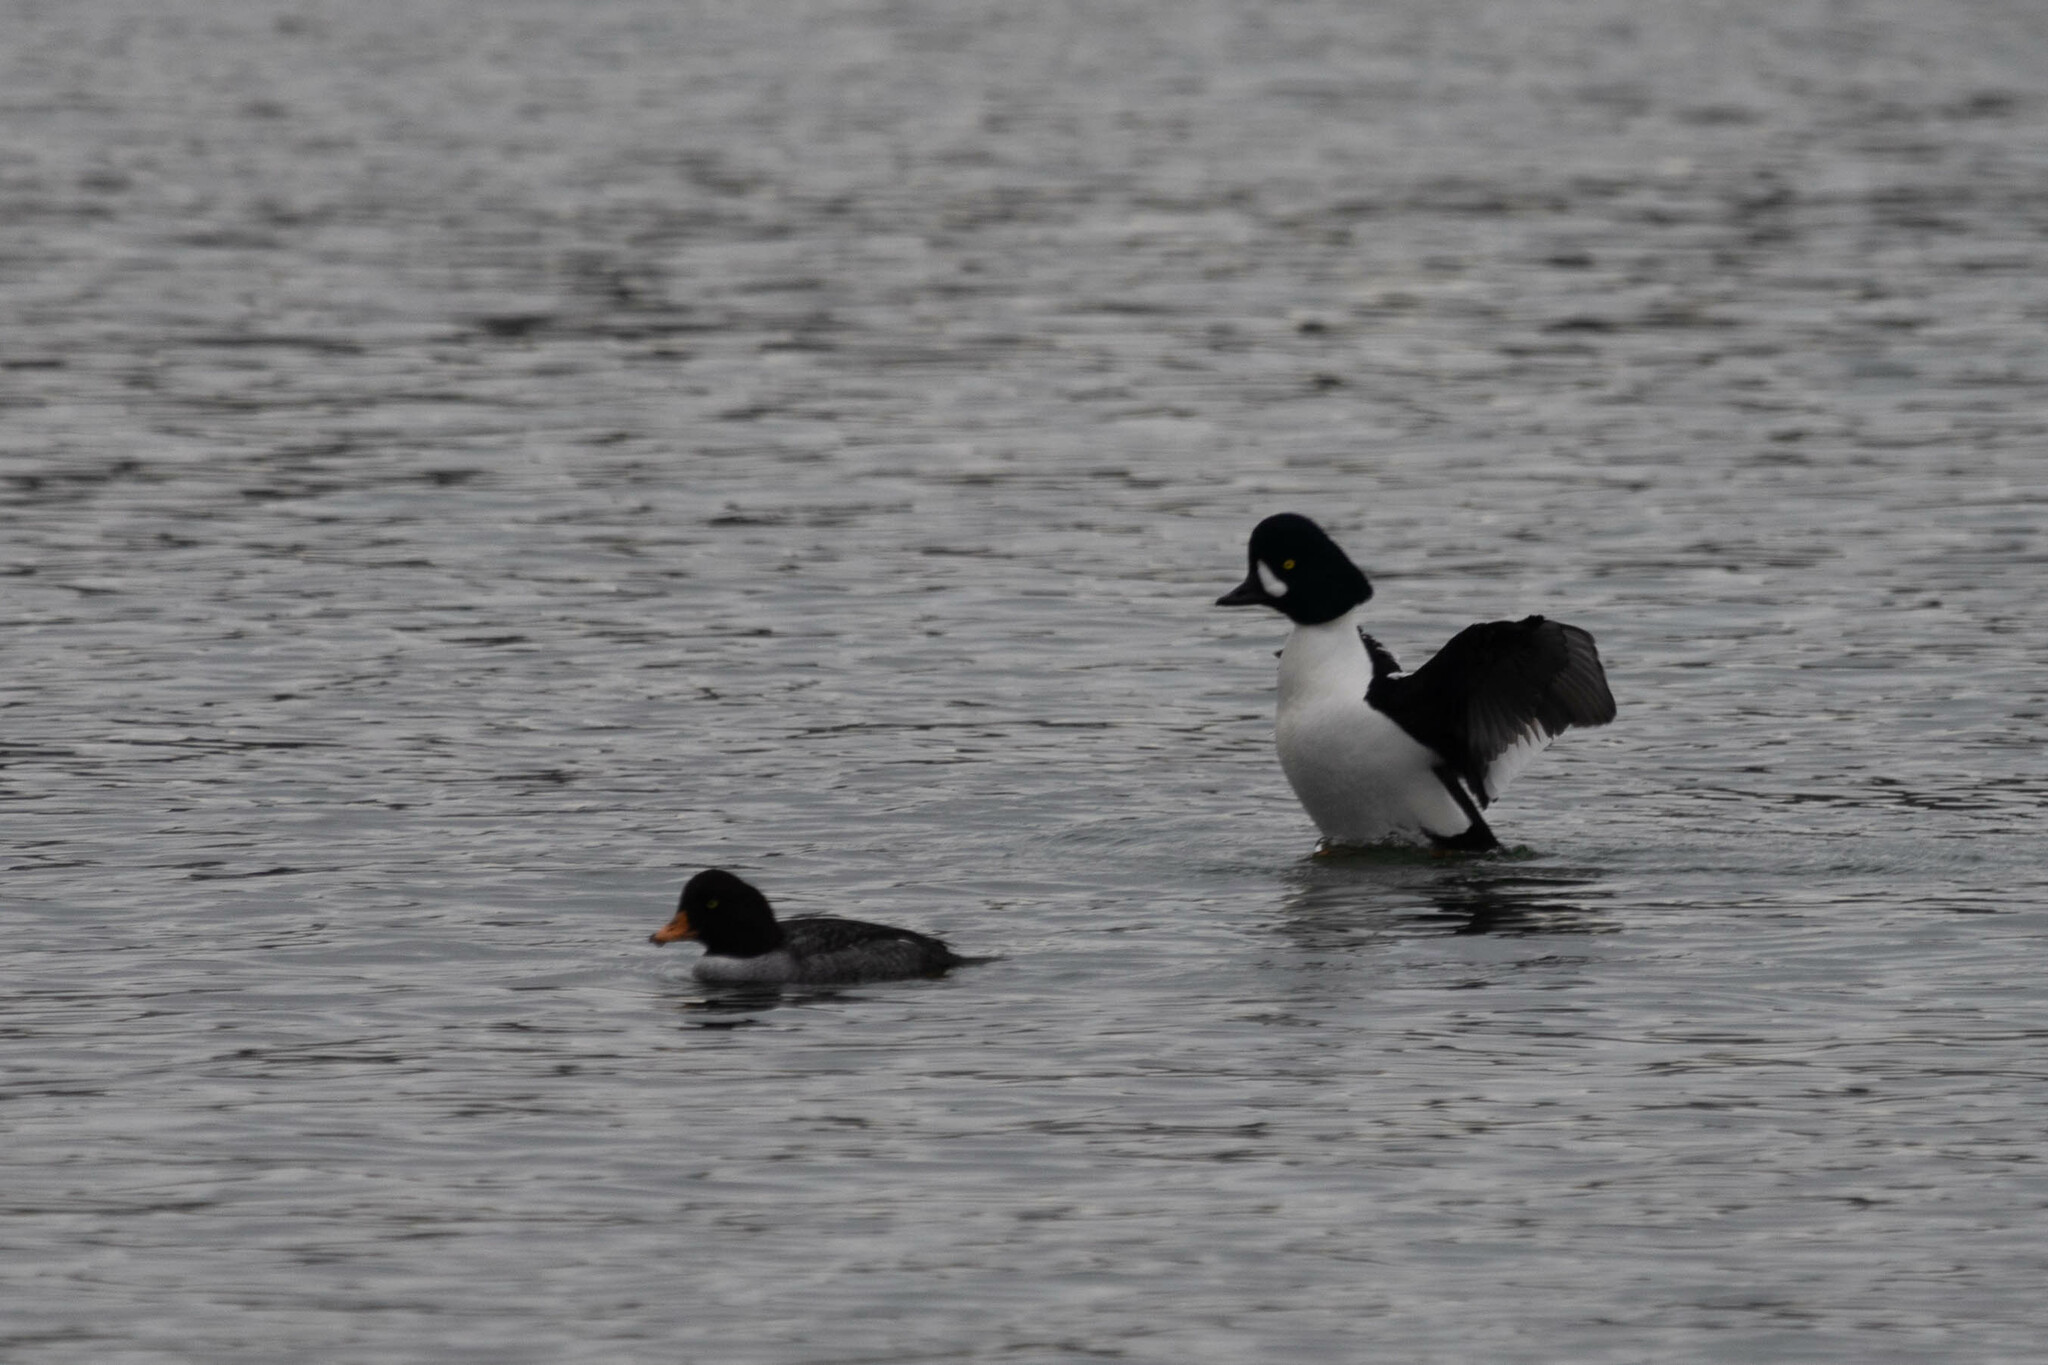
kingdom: Animalia
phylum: Chordata
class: Aves
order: Anseriformes
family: Anatidae
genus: Bucephala
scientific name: Bucephala islandica
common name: Barrow's goldeneye
